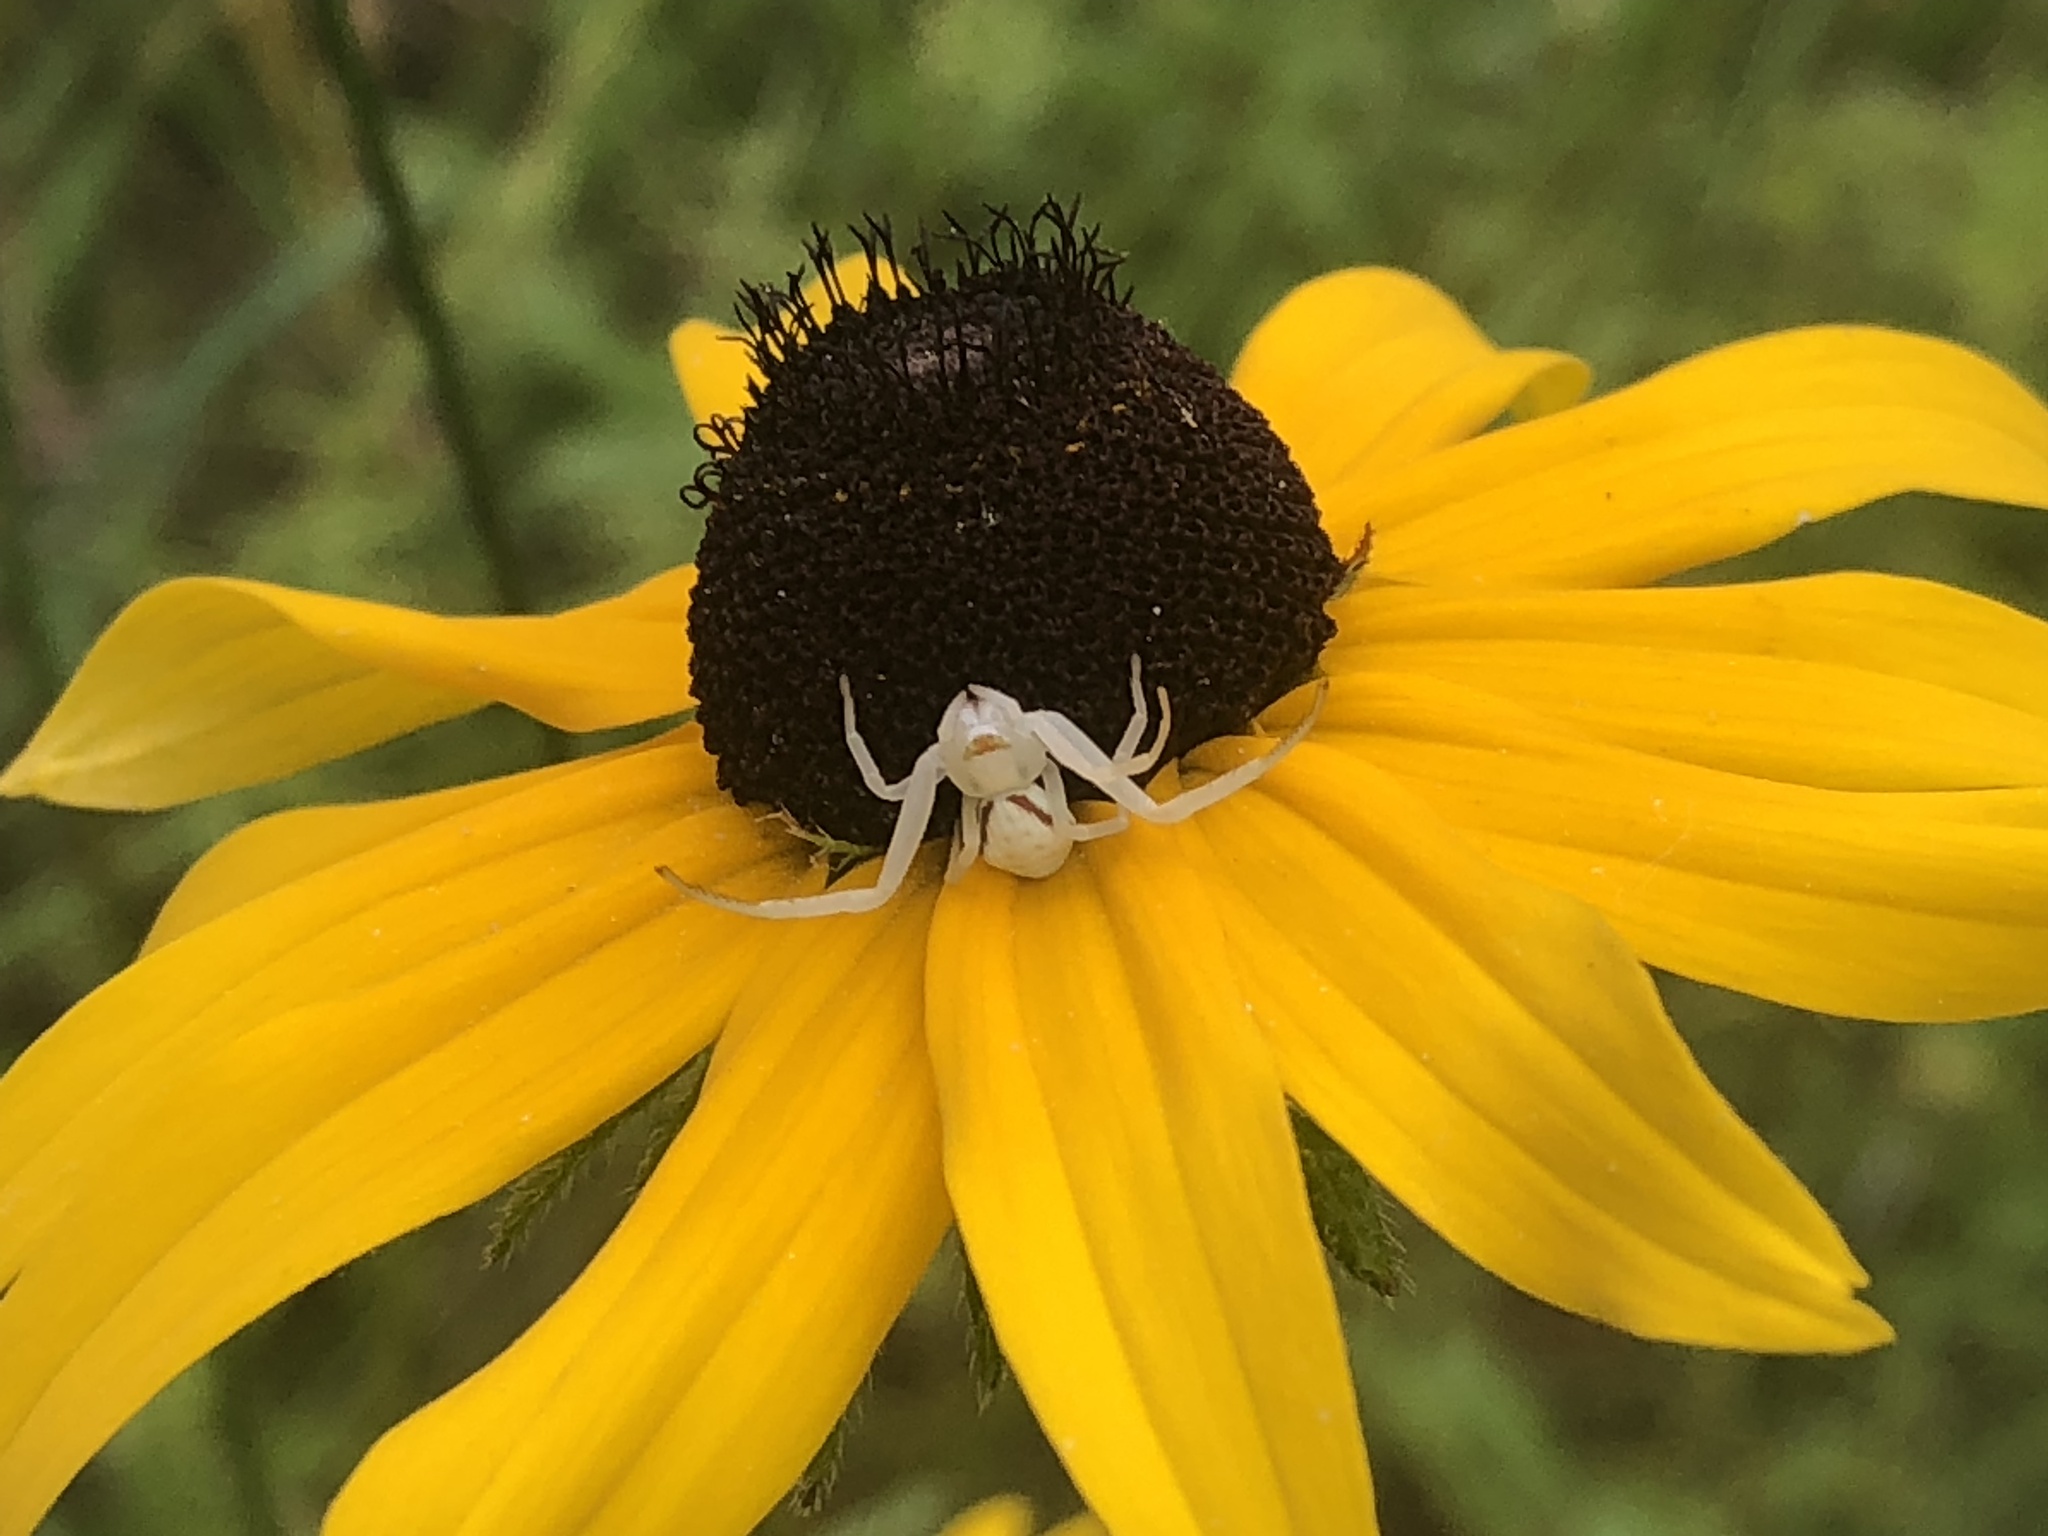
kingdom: Animalia
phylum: Arthropoda
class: Arachnida
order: Araneae
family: Thomisidae
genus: Misumena
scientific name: Misumena vatia
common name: Goldenrod crab spider
